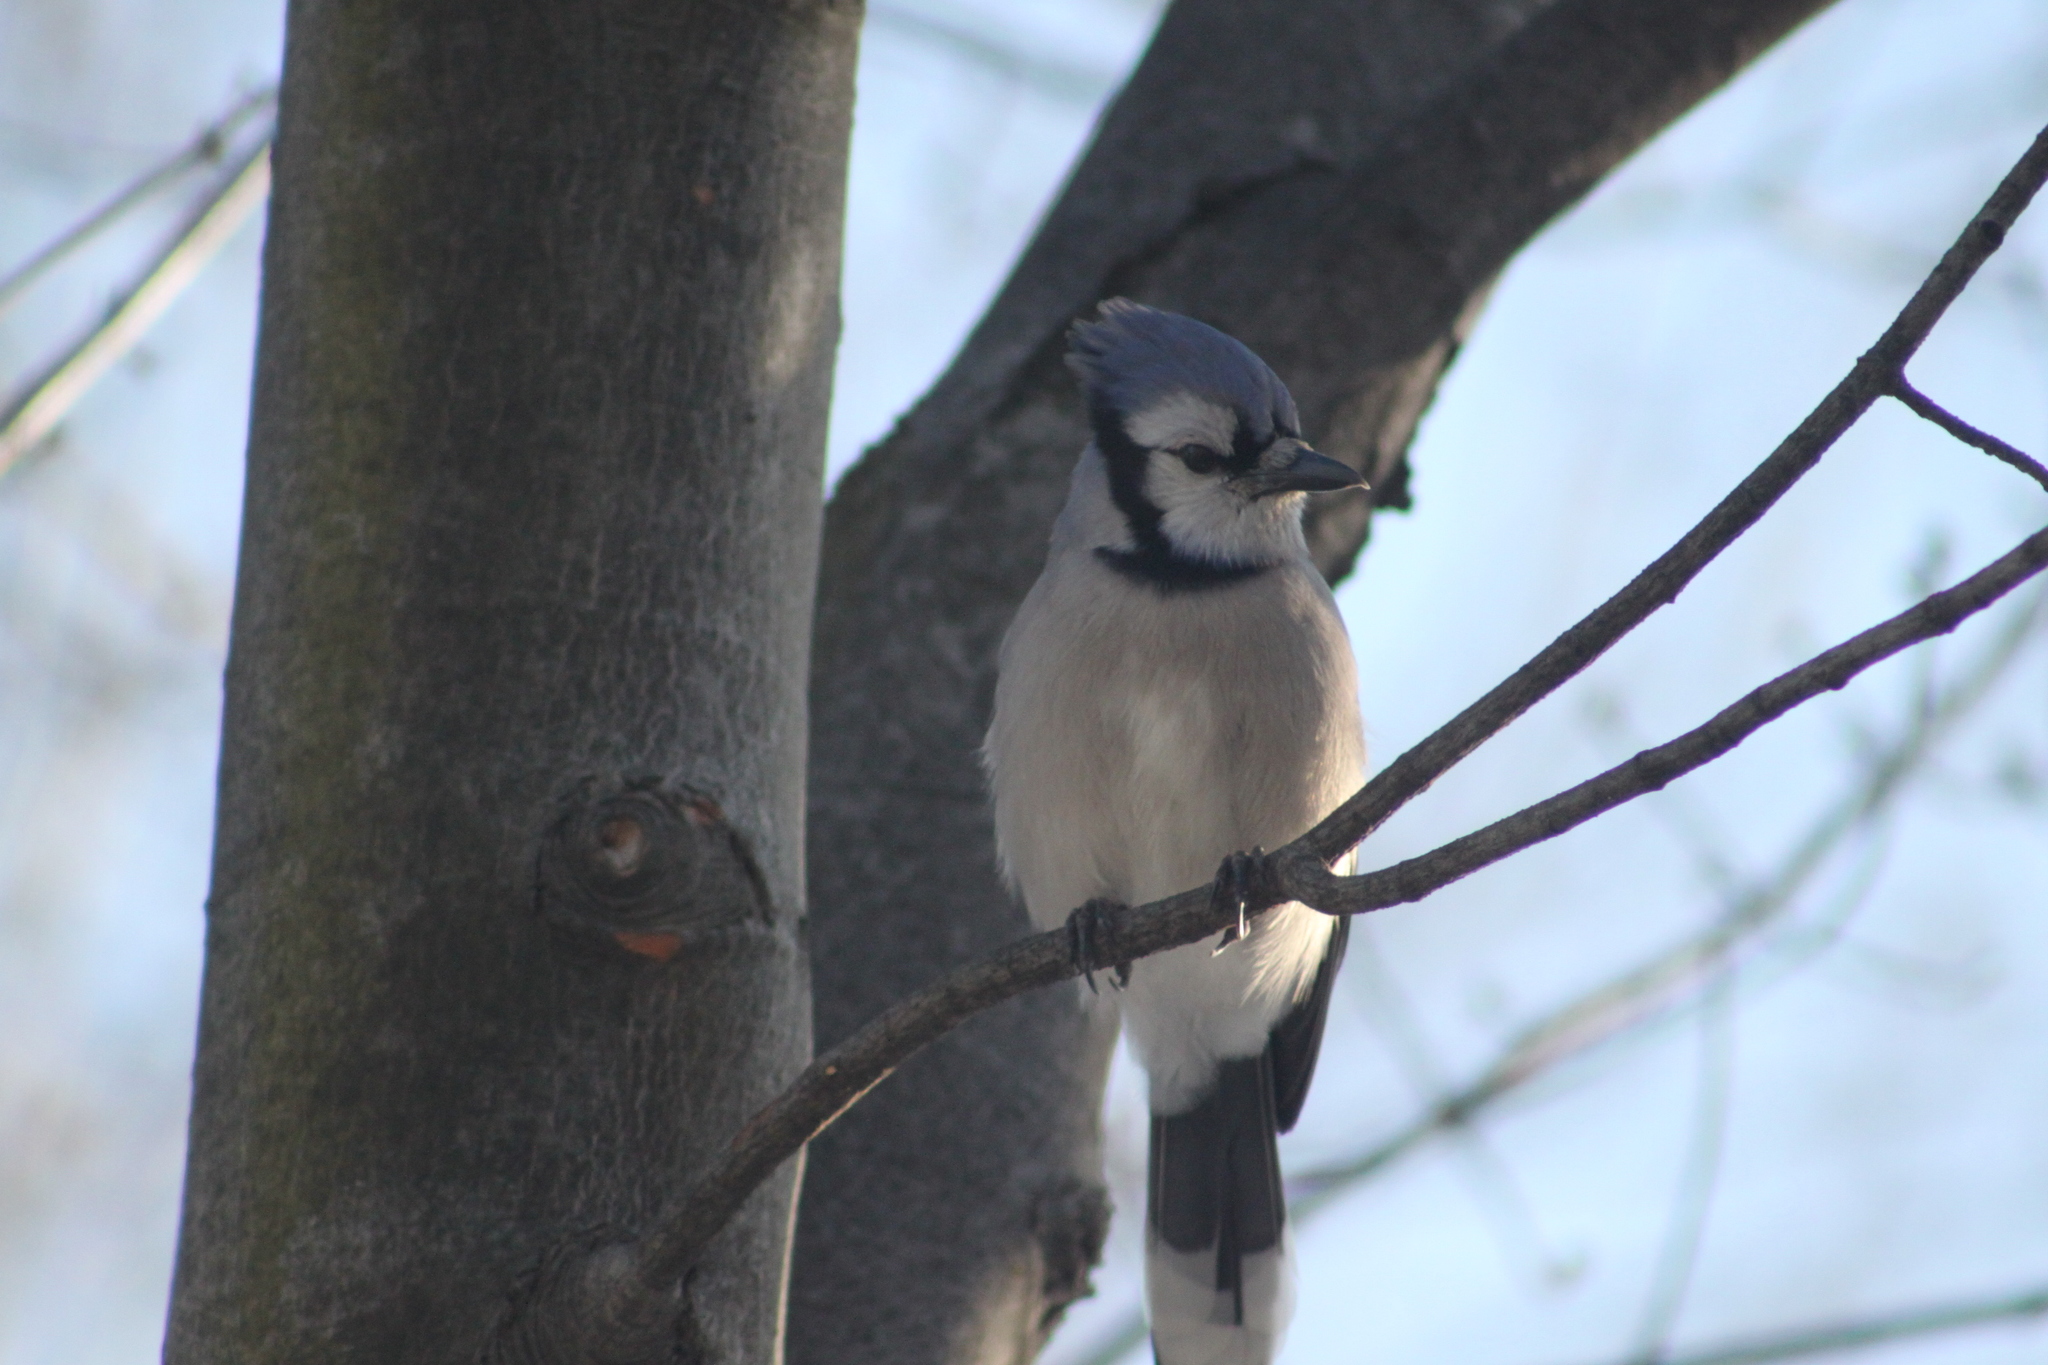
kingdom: Animalia
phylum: Chordata
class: Aves
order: Passeriformes
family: Corvidae
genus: Cyanocitta
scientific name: Cyanocitta cristata
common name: Blue jay
